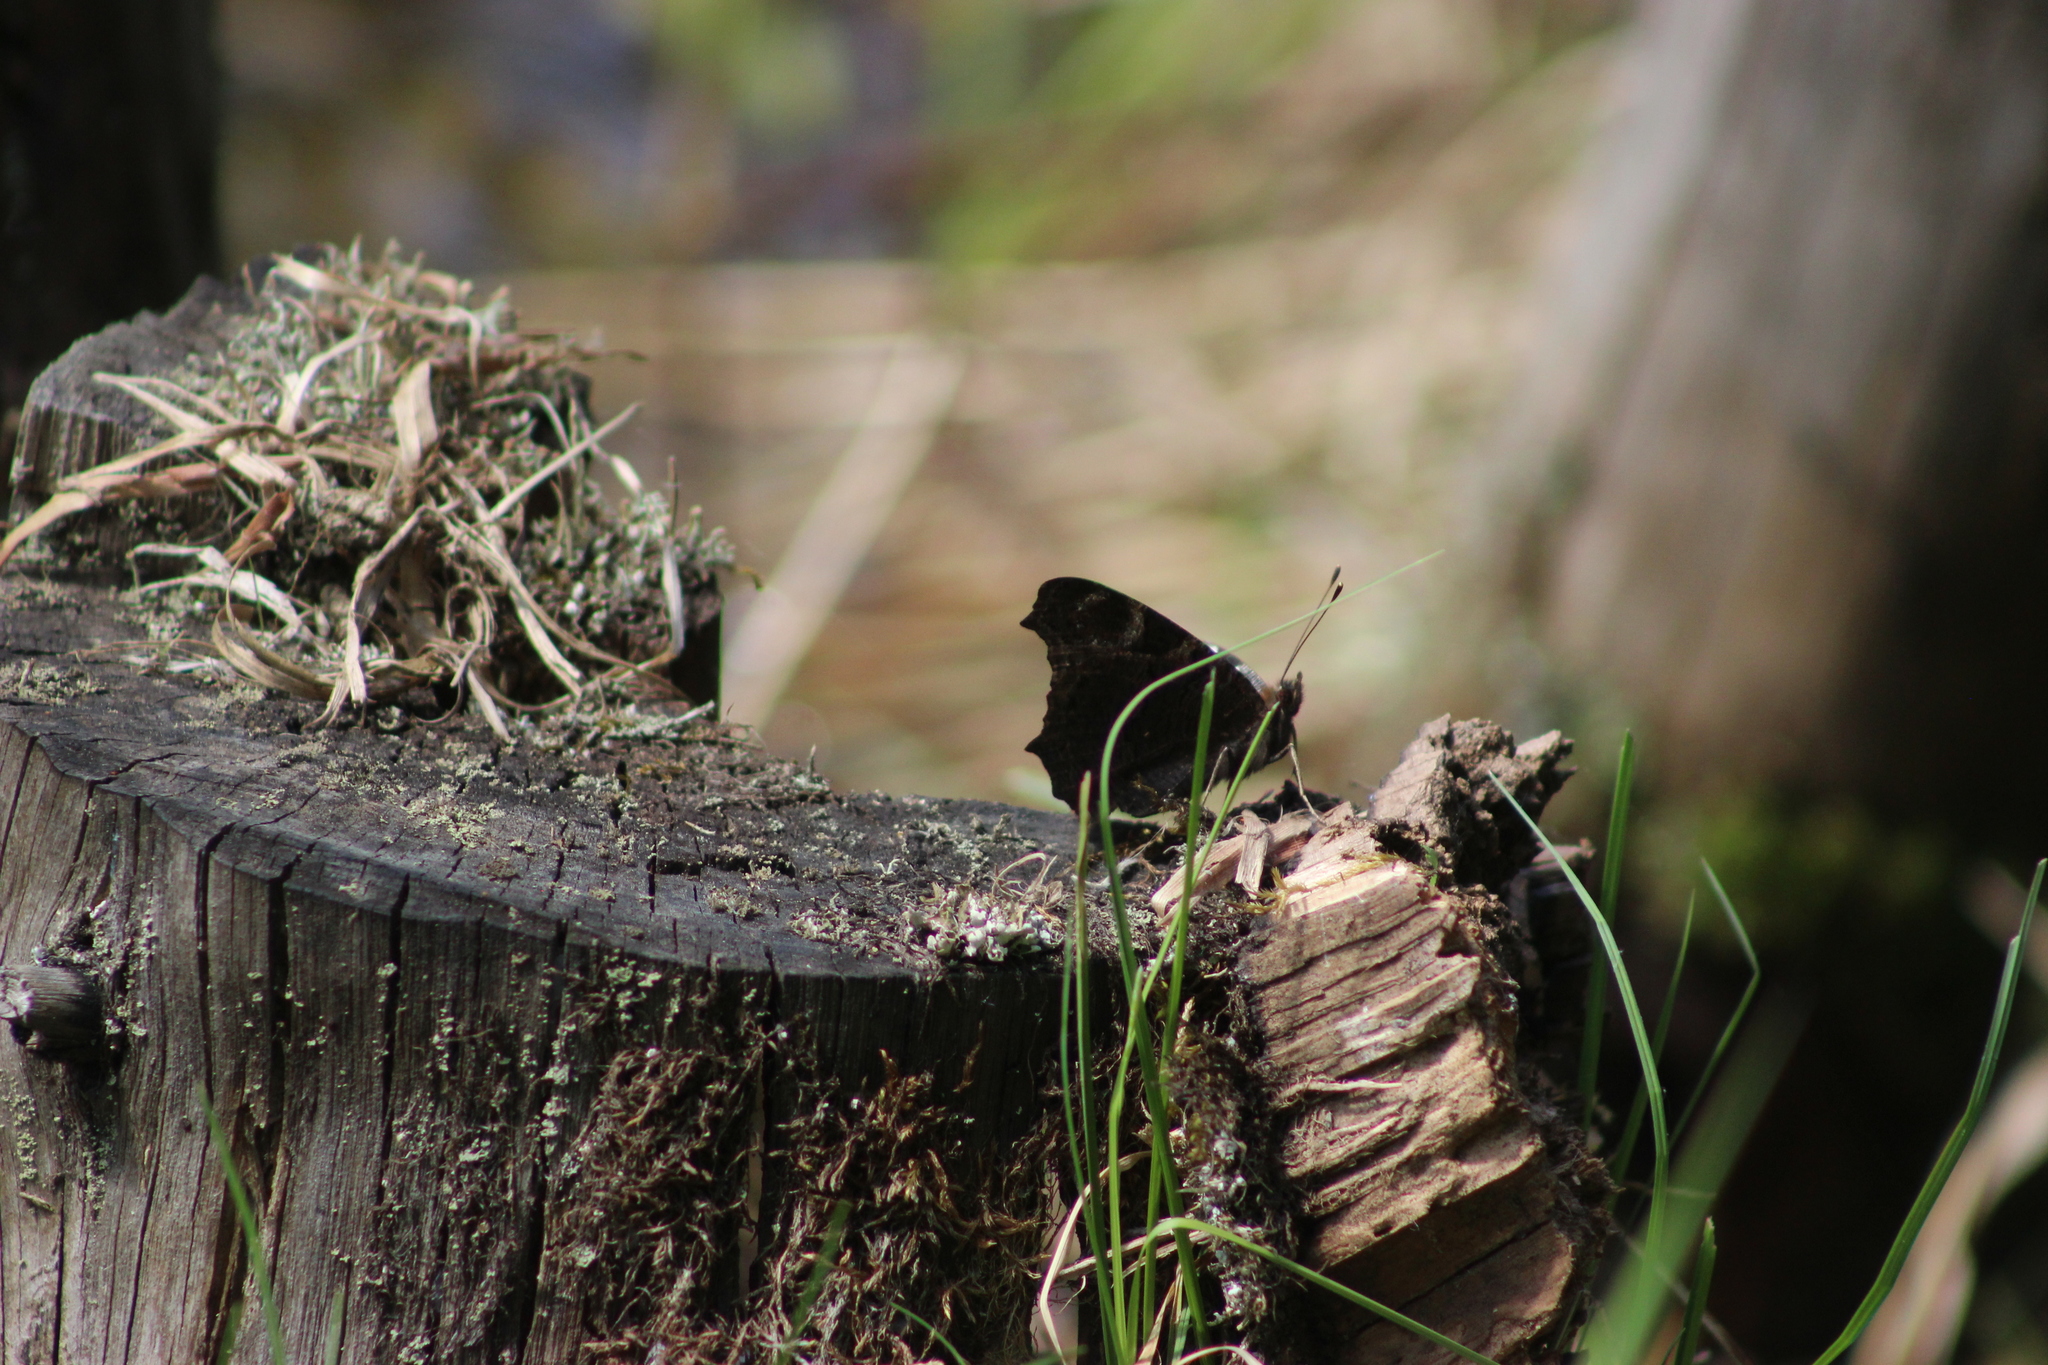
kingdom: Animalia
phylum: Arthropoda
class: Insecta
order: Lepidoptera
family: Nymphalidae
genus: Aglais
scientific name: Aglais io
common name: Peacock
